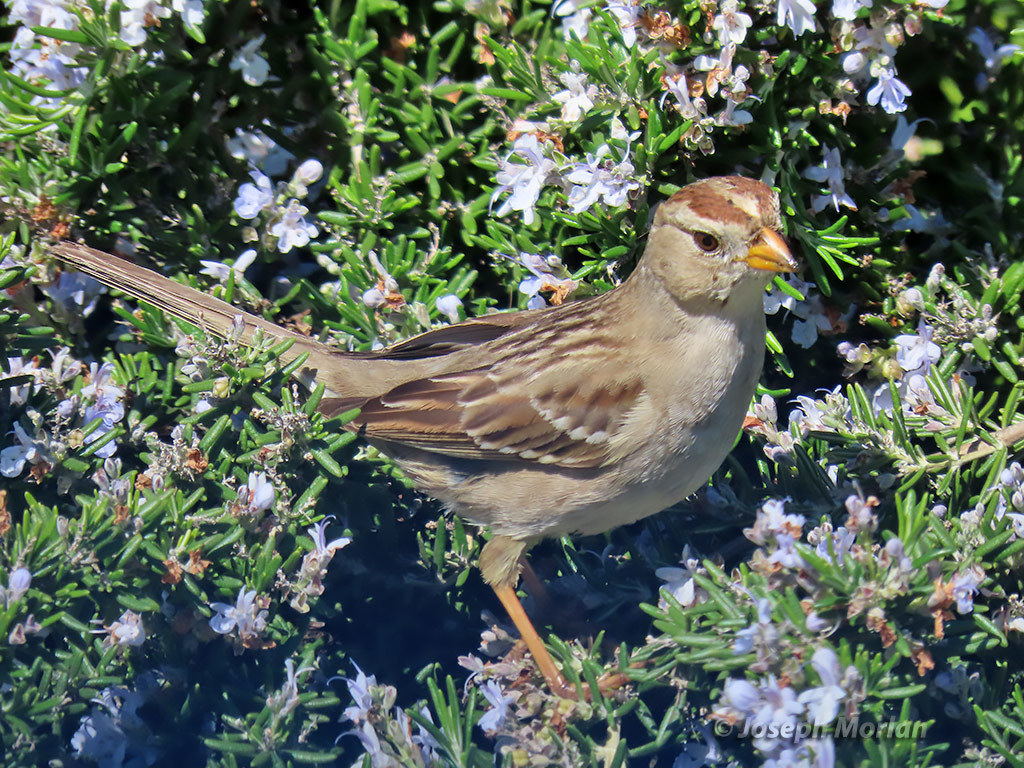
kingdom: Animalia
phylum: Chordata
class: Aves
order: Passeriformes
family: Passerellidae
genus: Zonotrichia
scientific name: Zonotrichia leucophrys
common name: White-crowned sparrow
